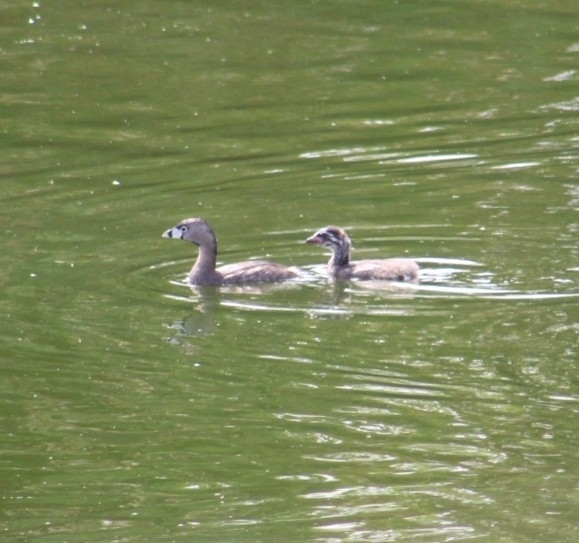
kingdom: Animalia
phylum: Chordata
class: Aves
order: Podicipediformes
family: Podicipedidae
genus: Podilymbus
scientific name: Podilymbus podiceps
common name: Pied-billed grebe
